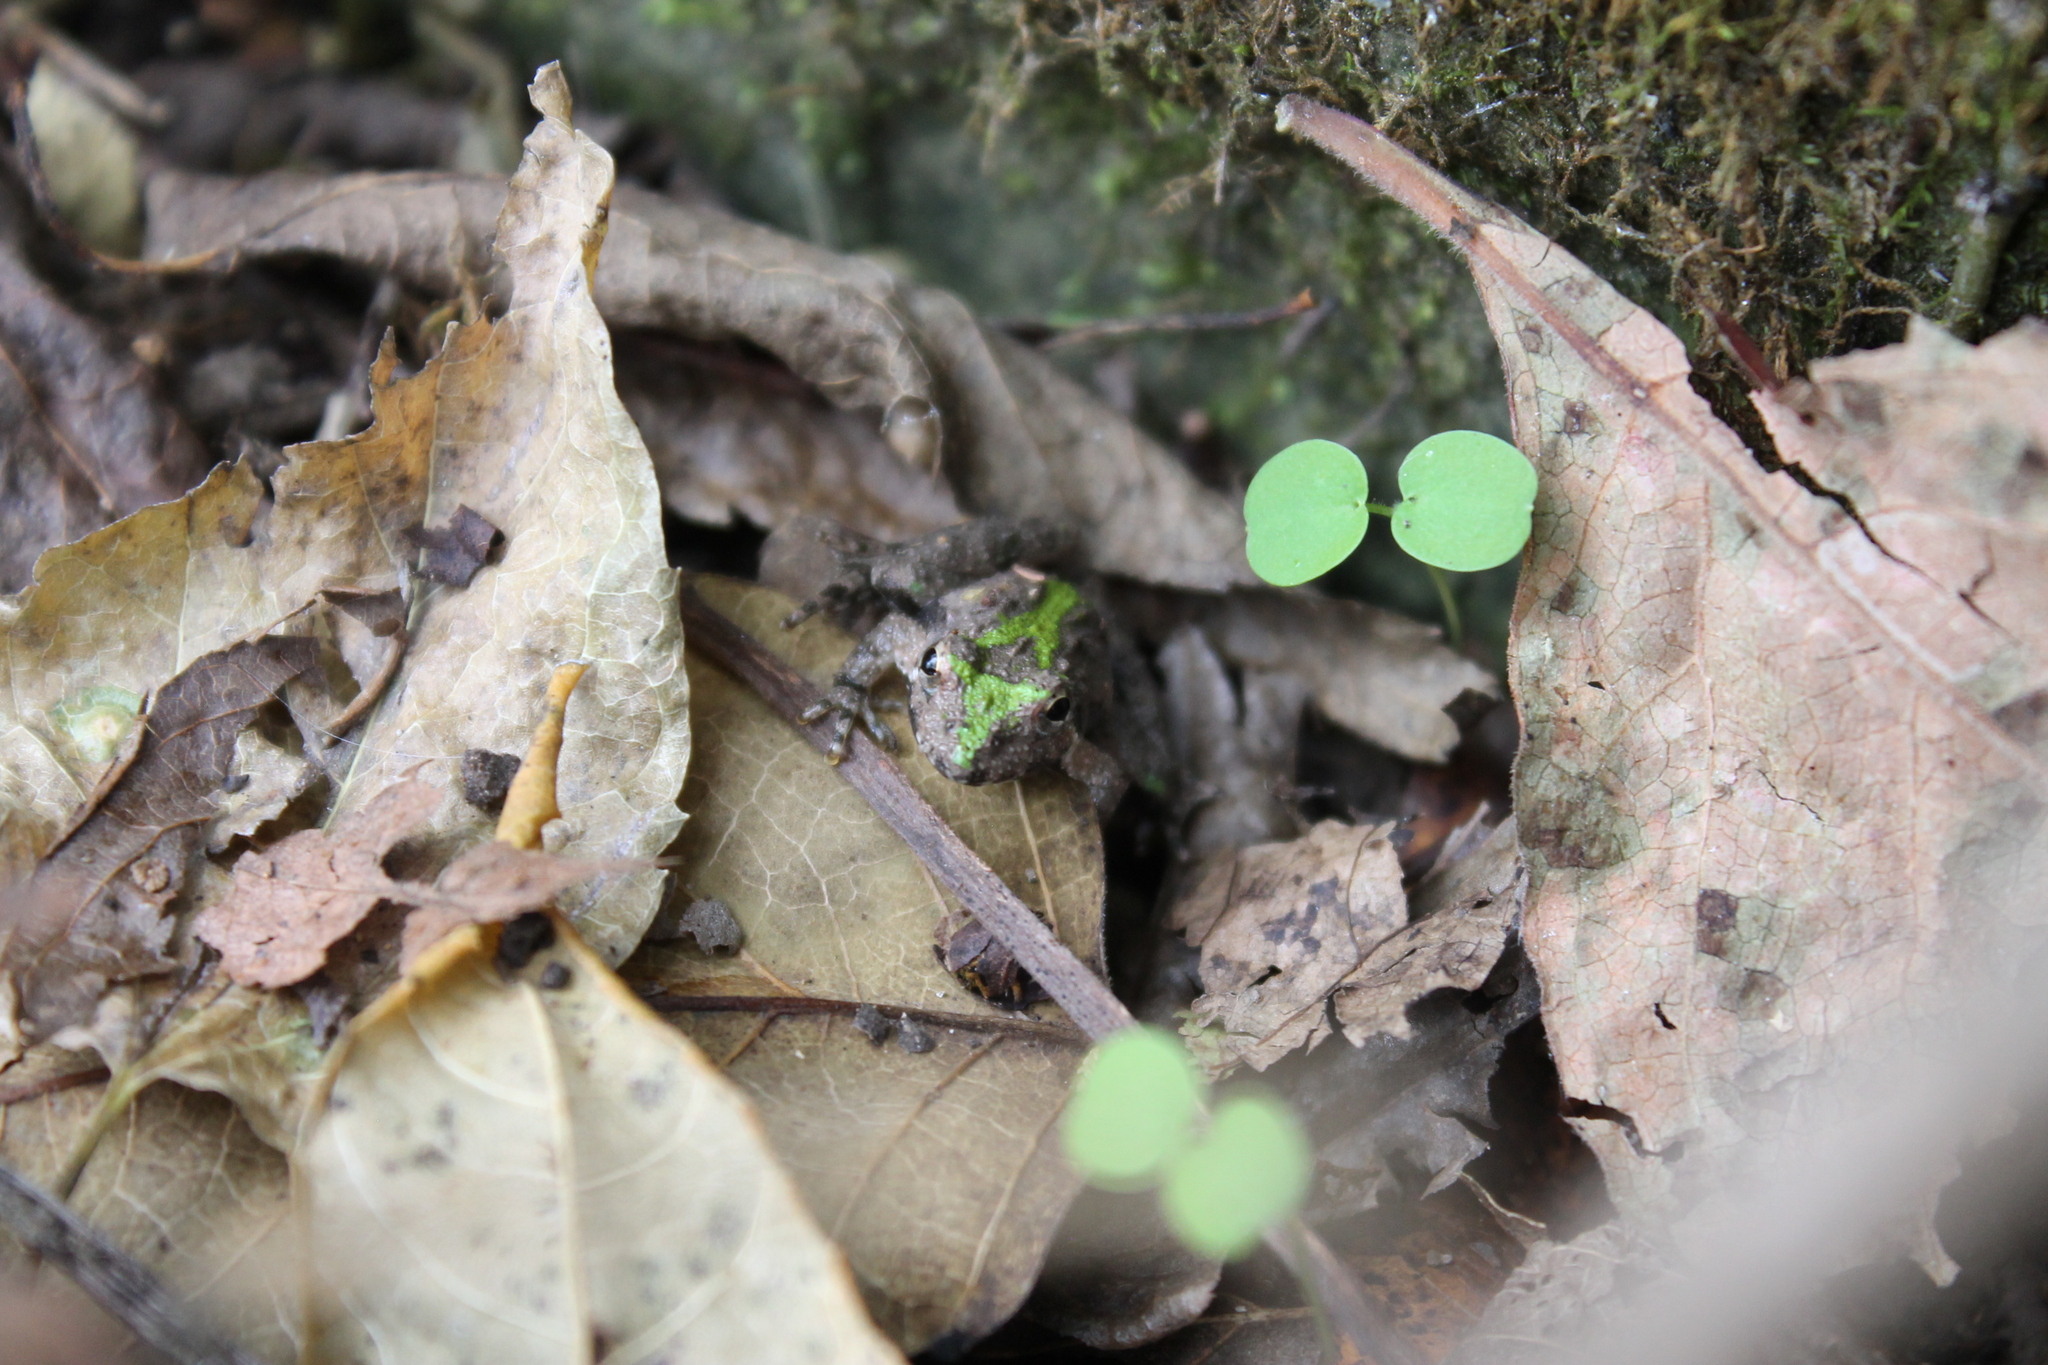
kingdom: Animalia
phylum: Chordata
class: Amphibia
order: Anura
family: Hylidae
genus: Acris
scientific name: Acris crepitans
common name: Northern cricket frog
